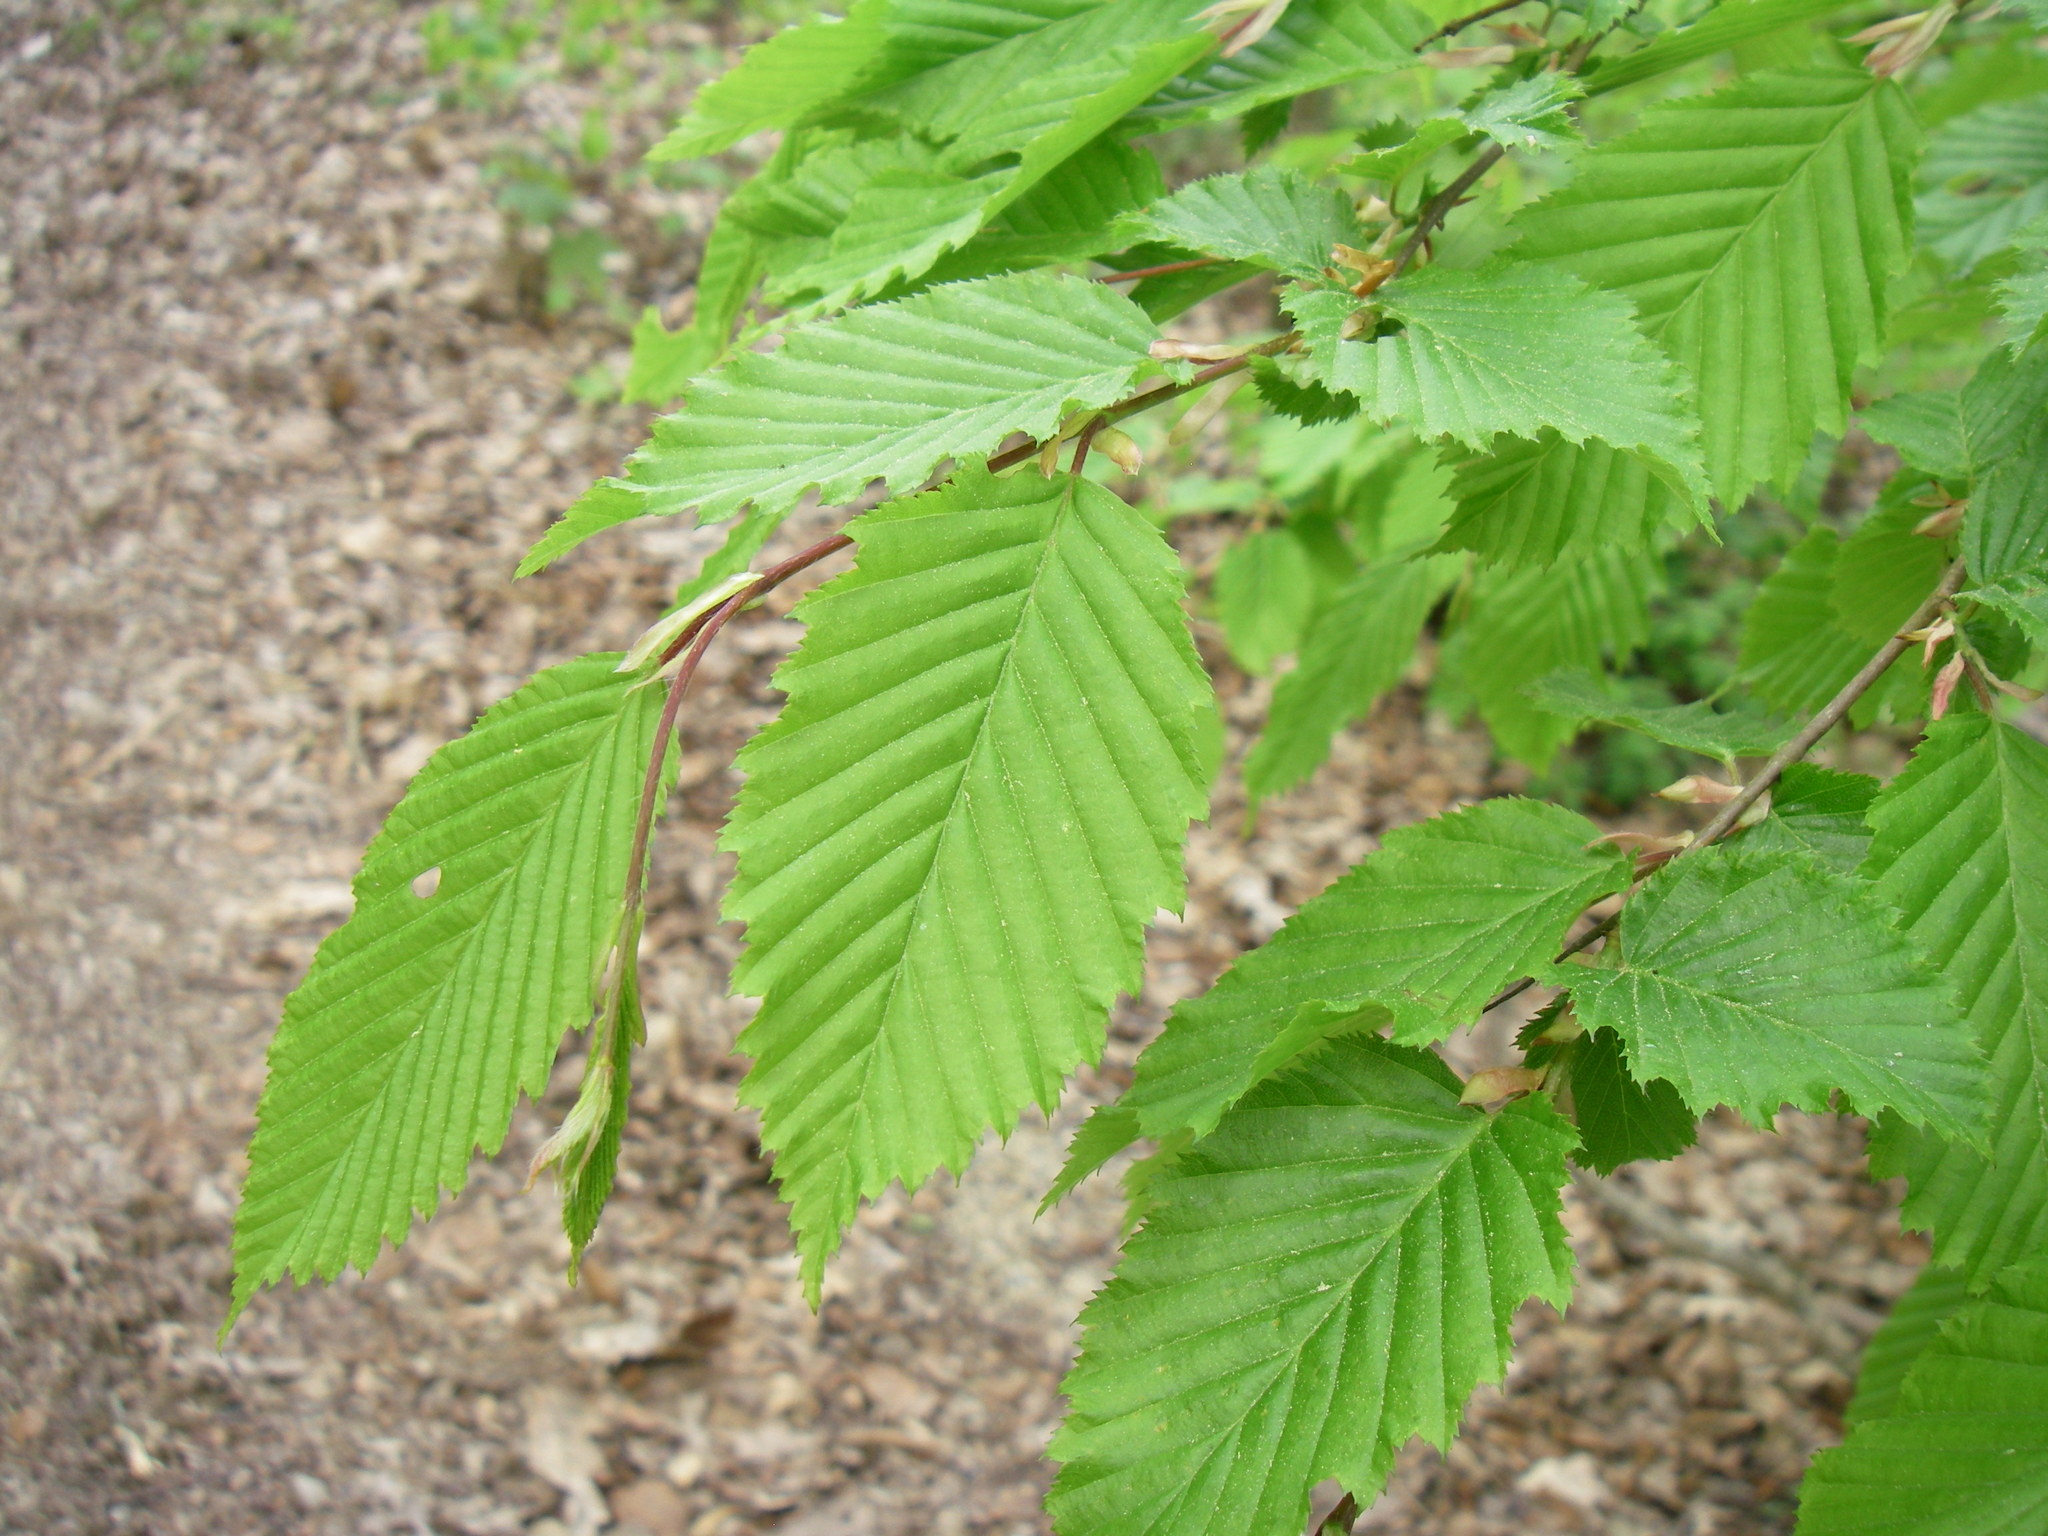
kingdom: Plantae
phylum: Tracheophyta
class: Magnoliopsida
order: Fagales
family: Betulaceae
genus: Carpinus
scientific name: Carpinus betulus
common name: Hornbeam
